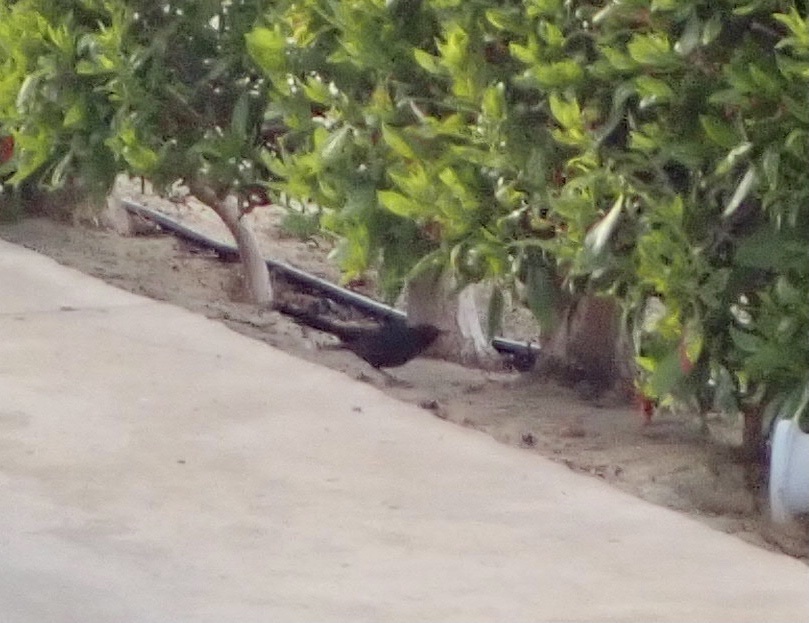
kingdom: Animalia
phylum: Chordata
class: Aves
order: Passeriformes
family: Muscicapidae
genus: Cercotrichas
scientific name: Cercotrichas podobe
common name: Black scrub robin
